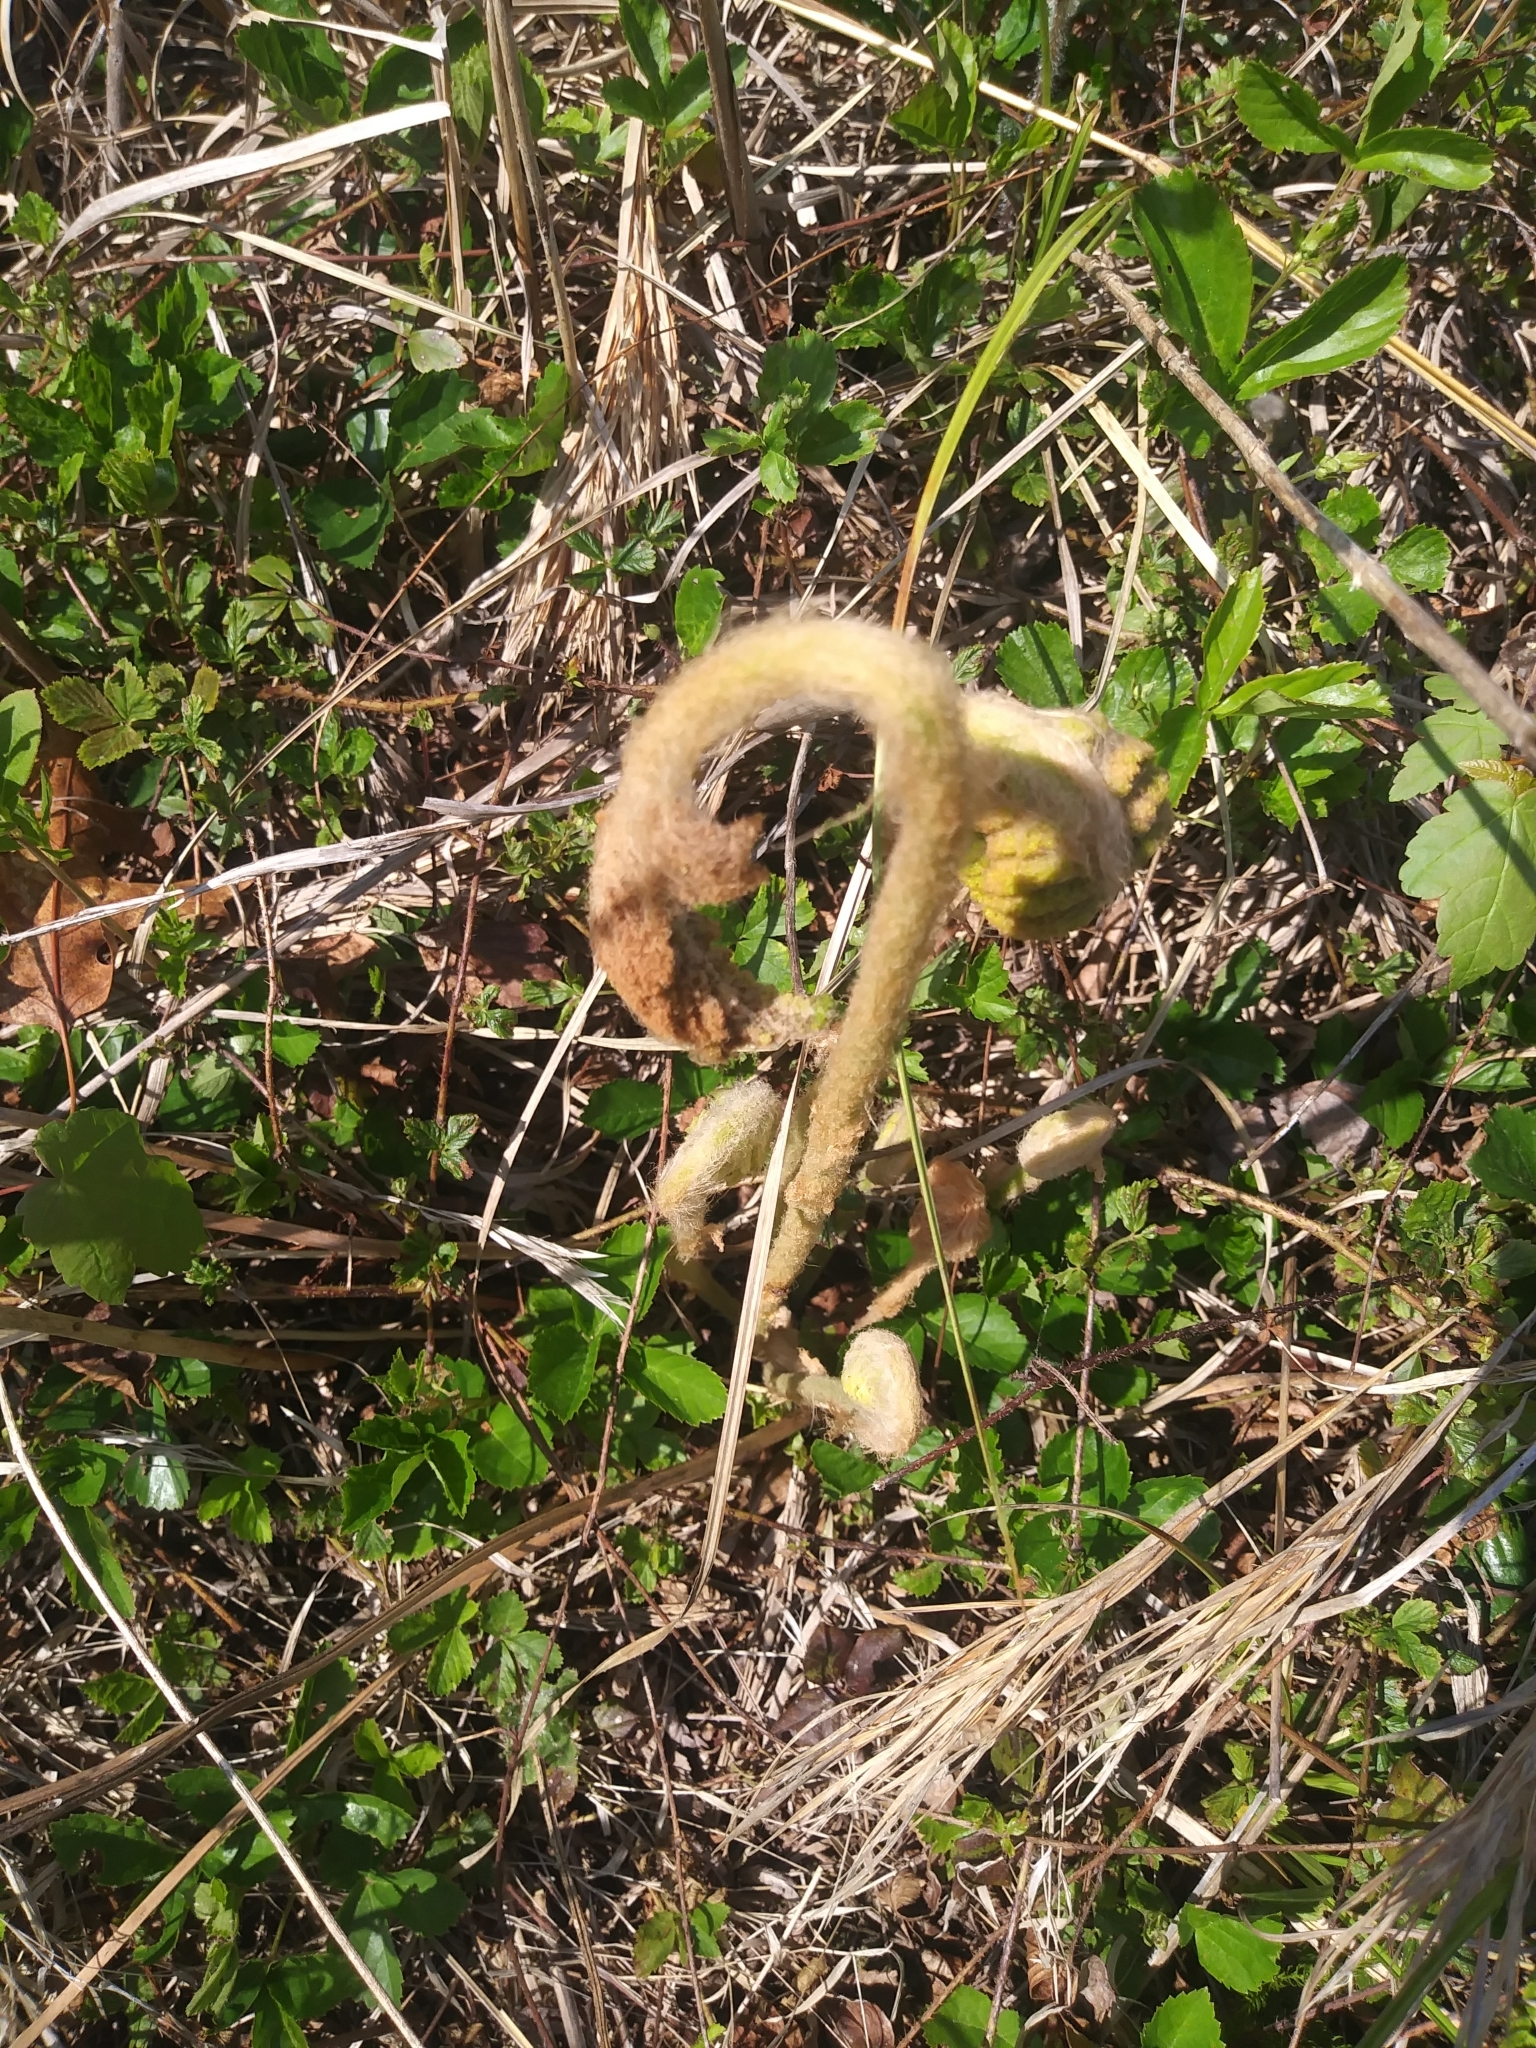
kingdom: Plantae
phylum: Tracheophyta
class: Polypodiopsida
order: Osmundales
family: Osmundaceae
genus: Osmundastrum
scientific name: Osmundastrum cinnamomeum
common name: Cinnamon fern
